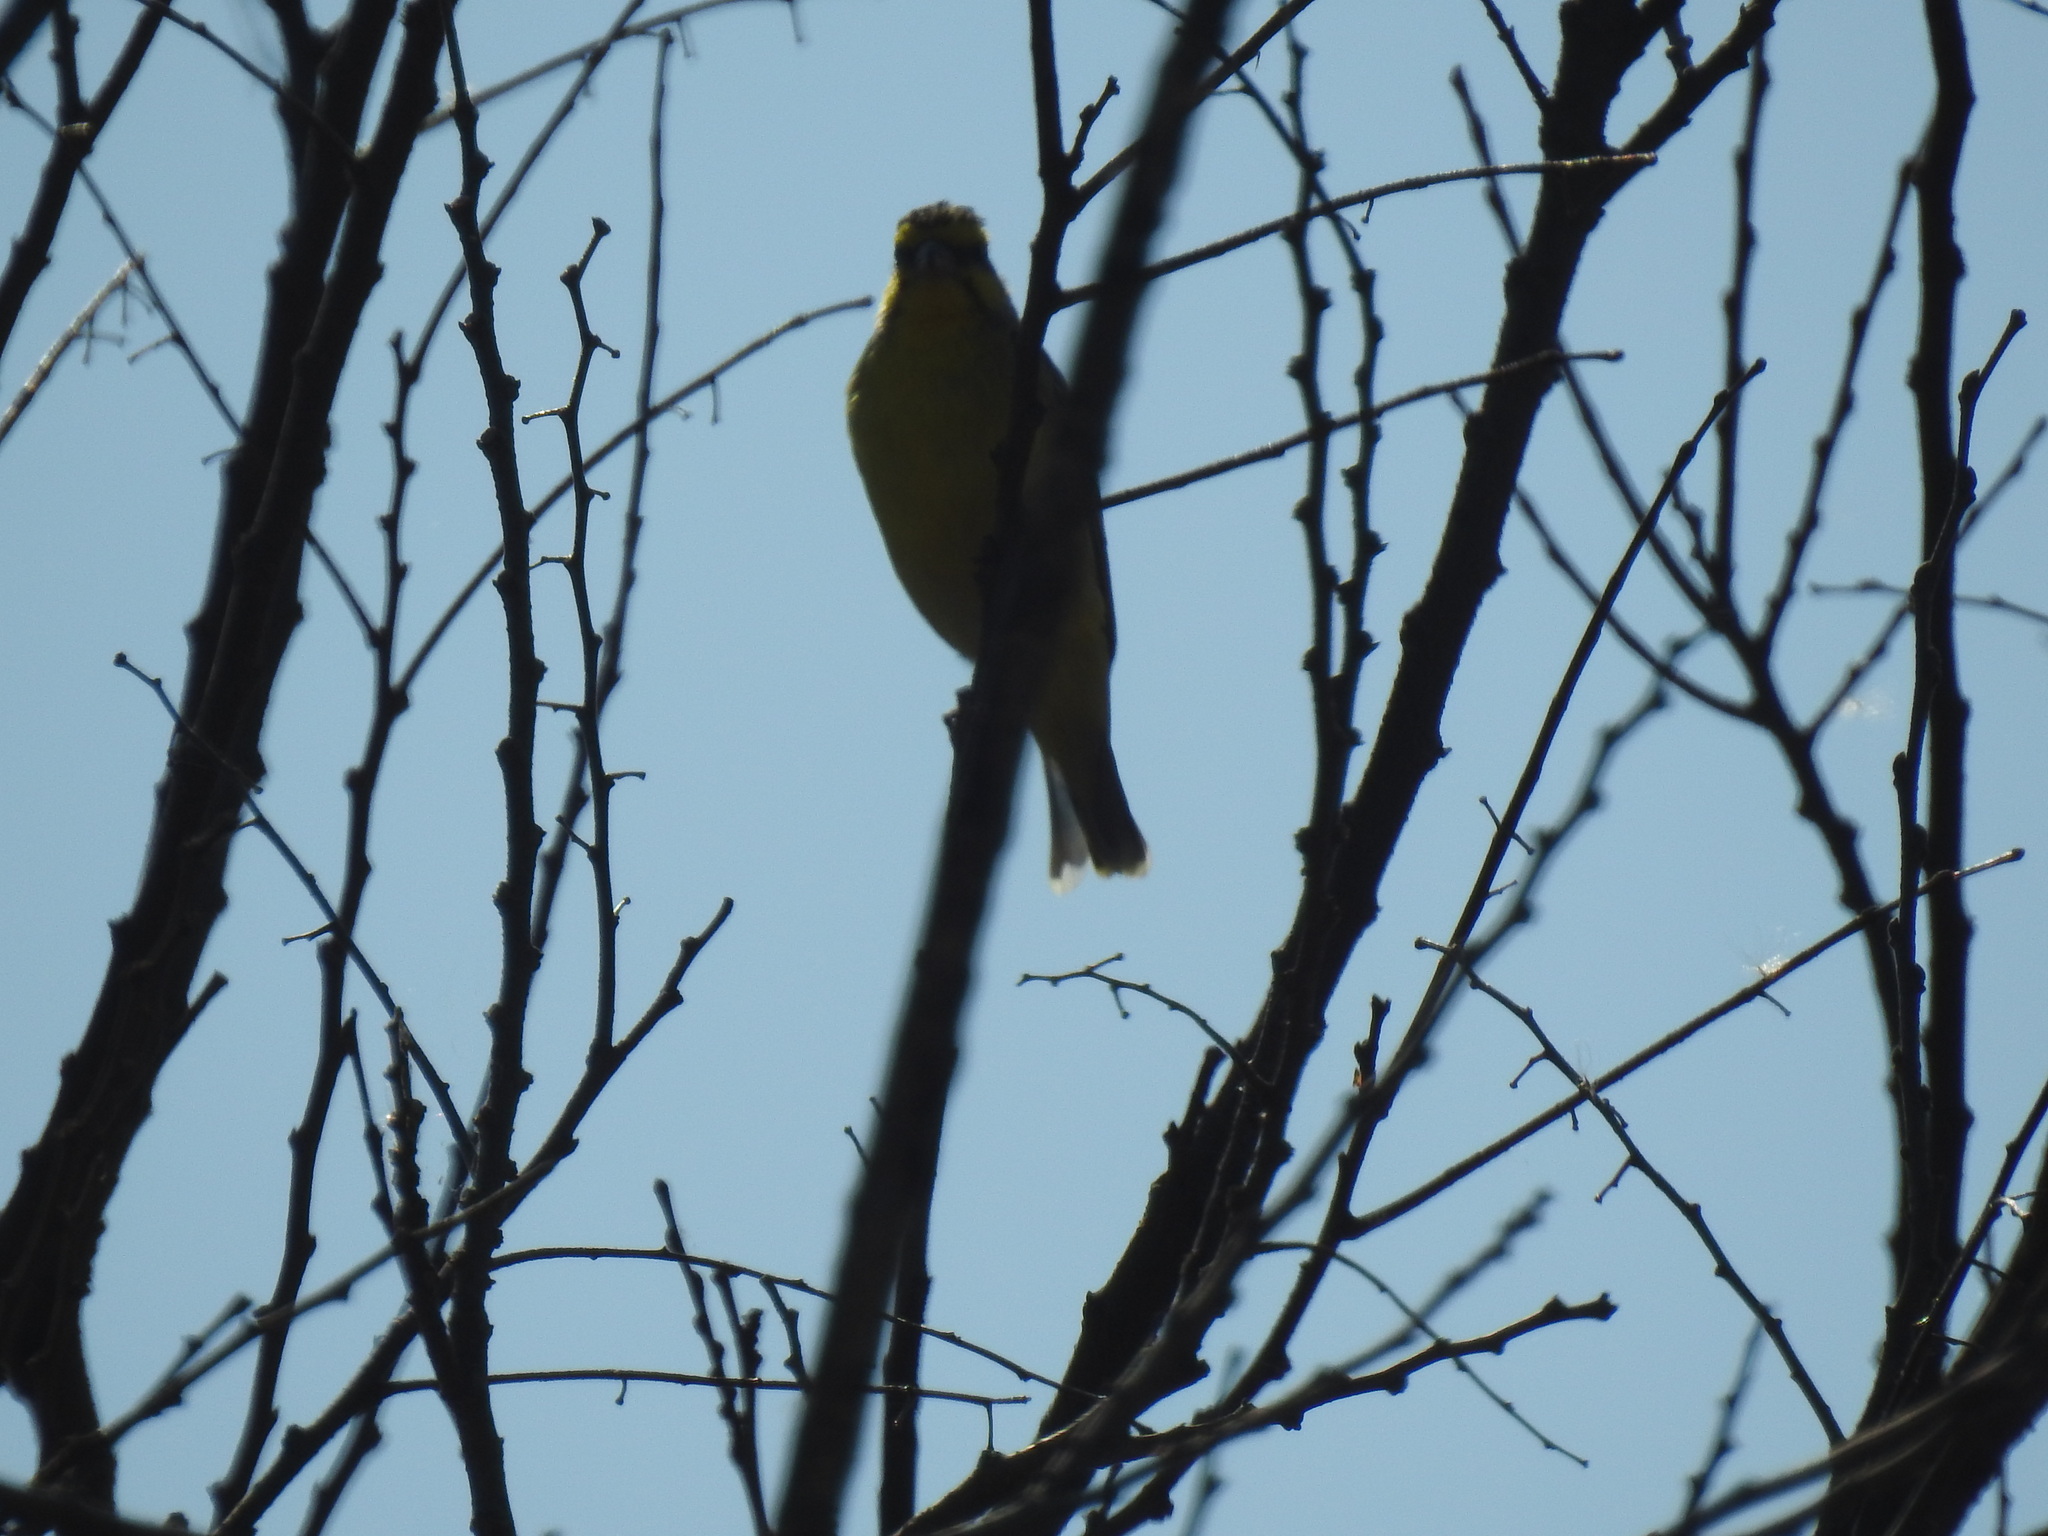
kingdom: Animalia
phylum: Chordata
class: Aves
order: Passeriformes
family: Fringillidae
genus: Crithagra
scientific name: Crithagra mozambica
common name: Yellow-fronted canary
